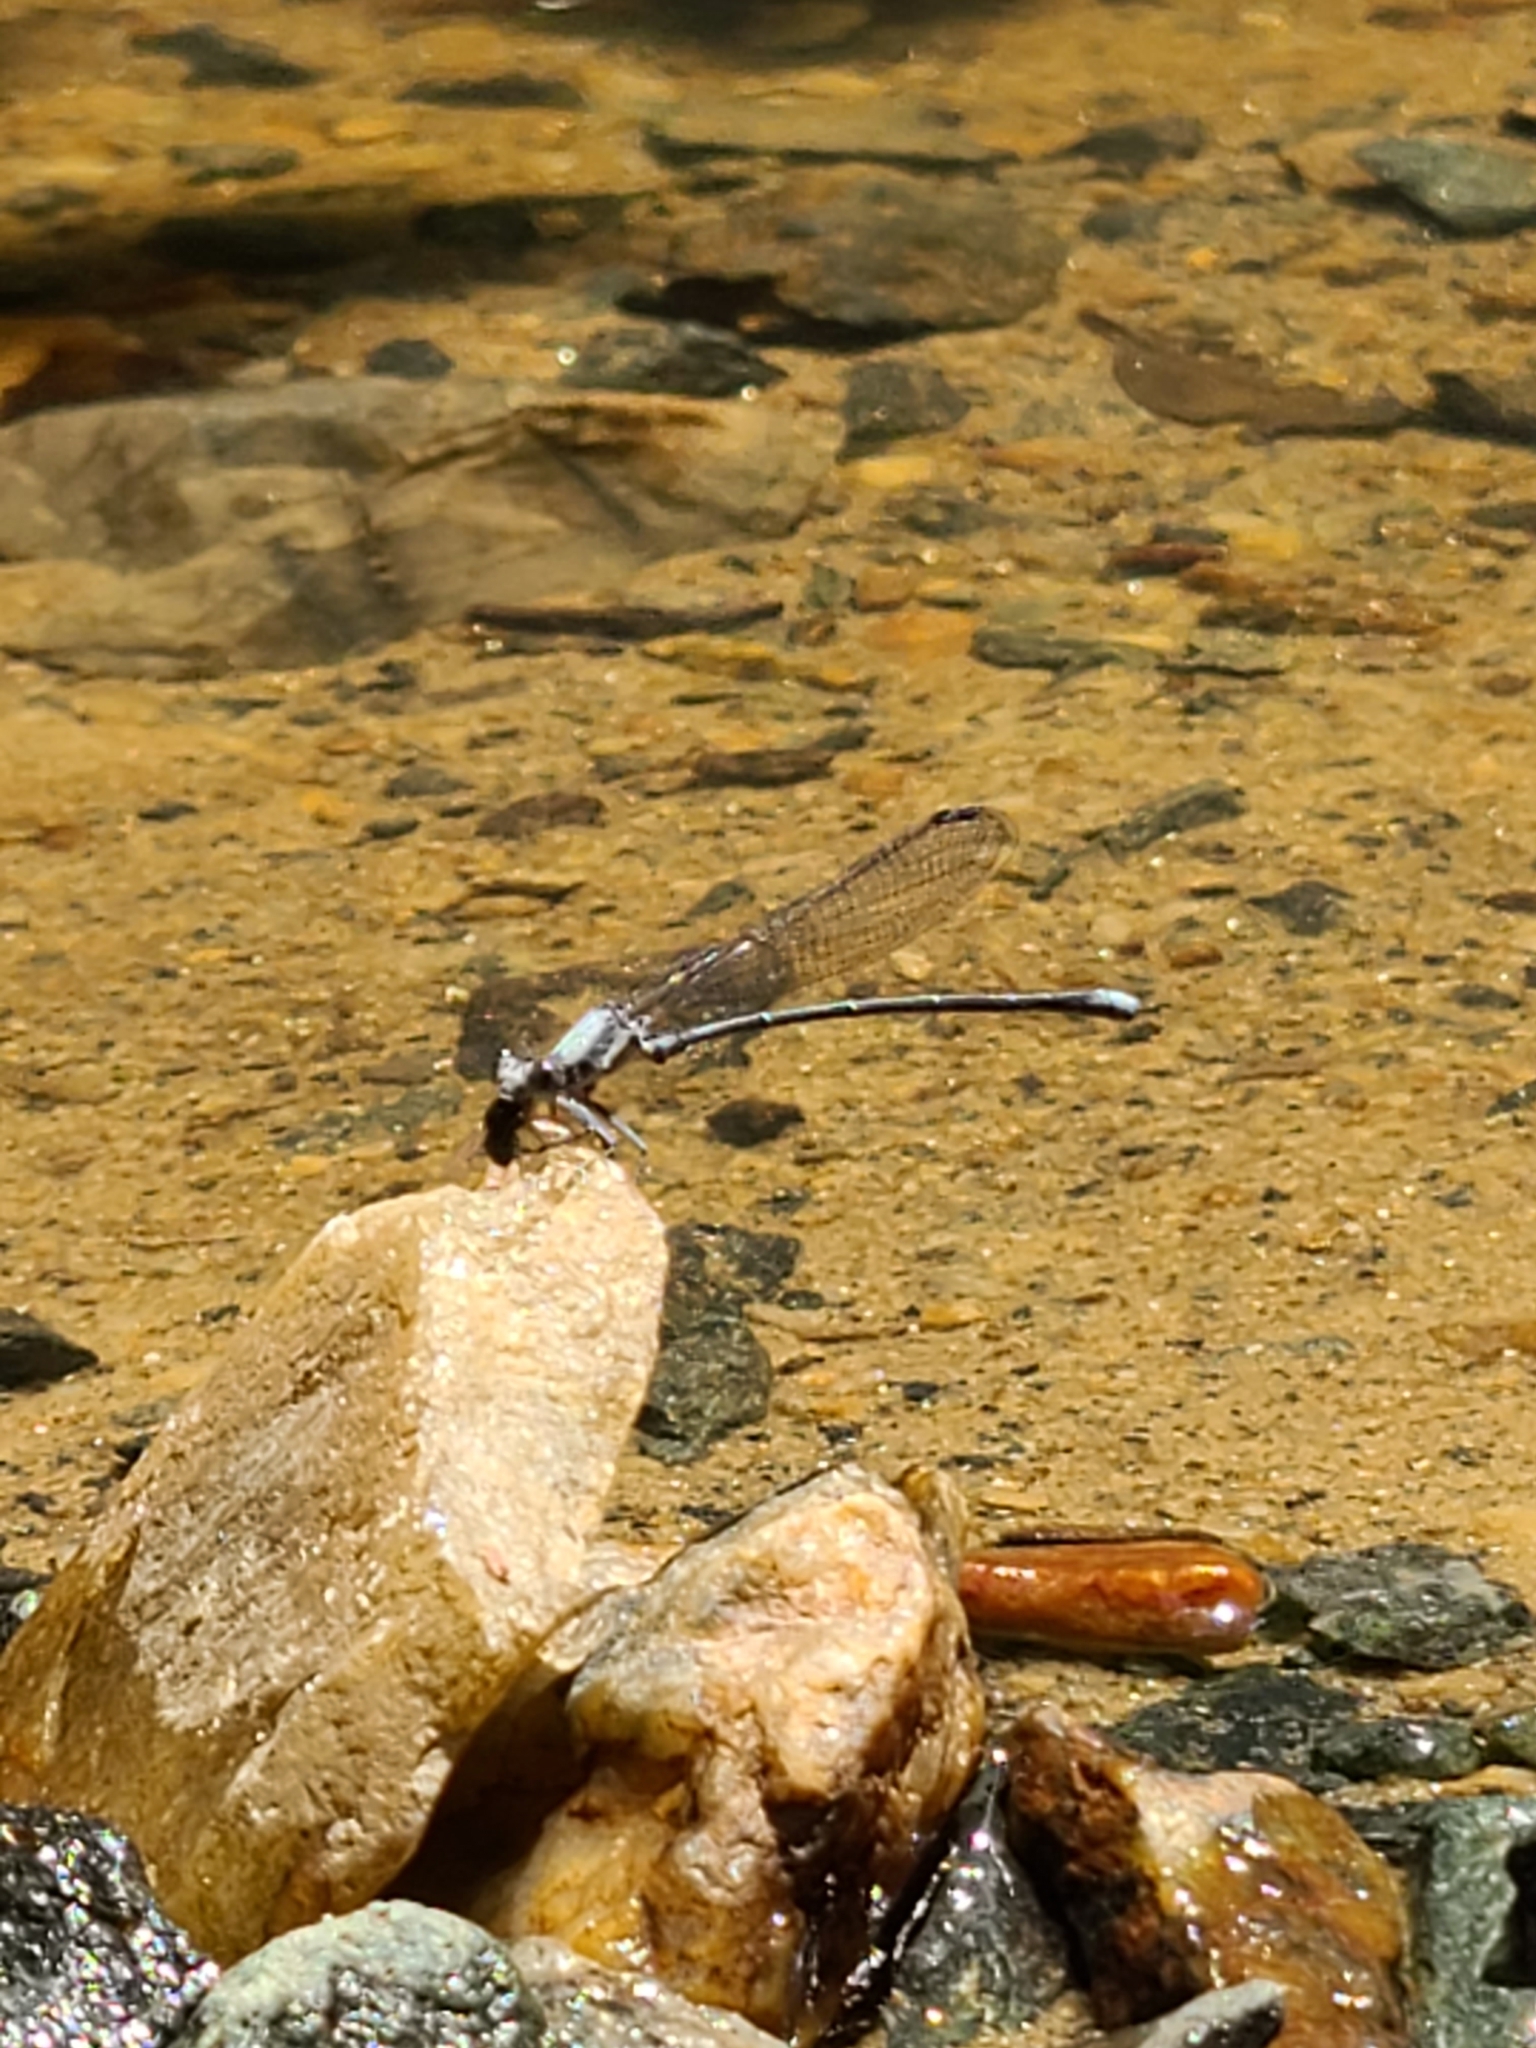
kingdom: Animalia
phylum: Arthropoda
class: Insecta
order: Odonata
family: Coenagrionidae
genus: Argia
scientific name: Argia moesta
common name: Powdered dancer
